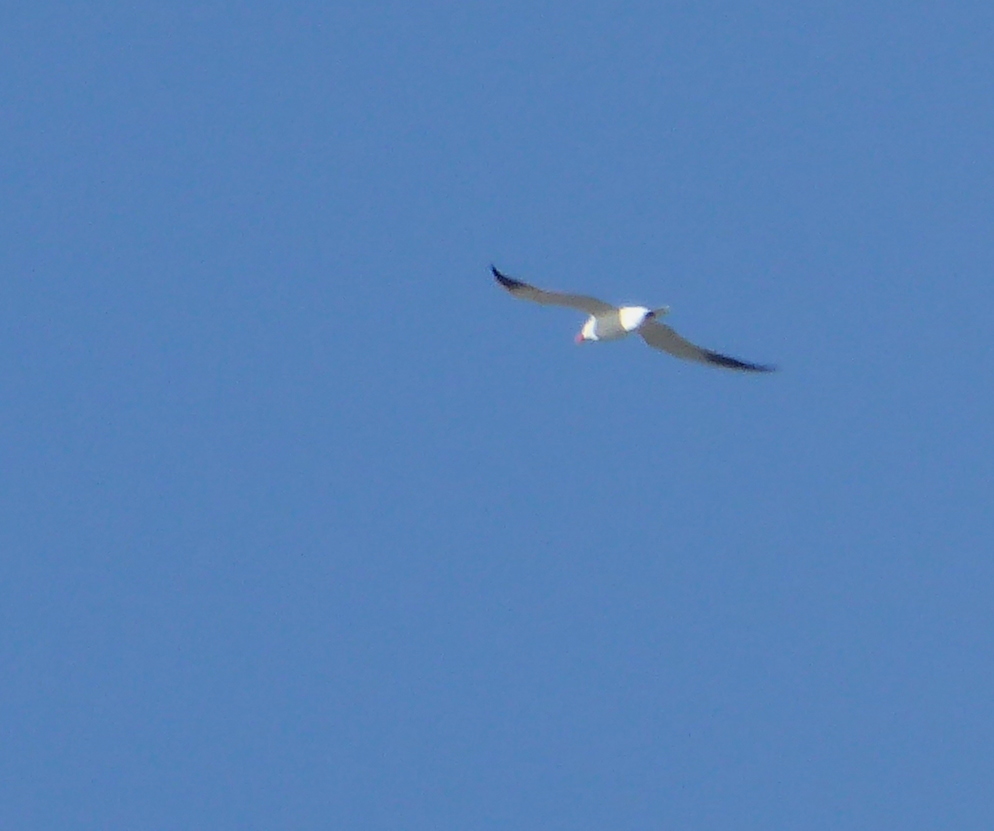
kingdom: Animalia
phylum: Chordata
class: Aves
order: Charadriiformes
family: Laridae
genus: Hydroprogne
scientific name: Hydroprogne caspia
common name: Caspian tern
